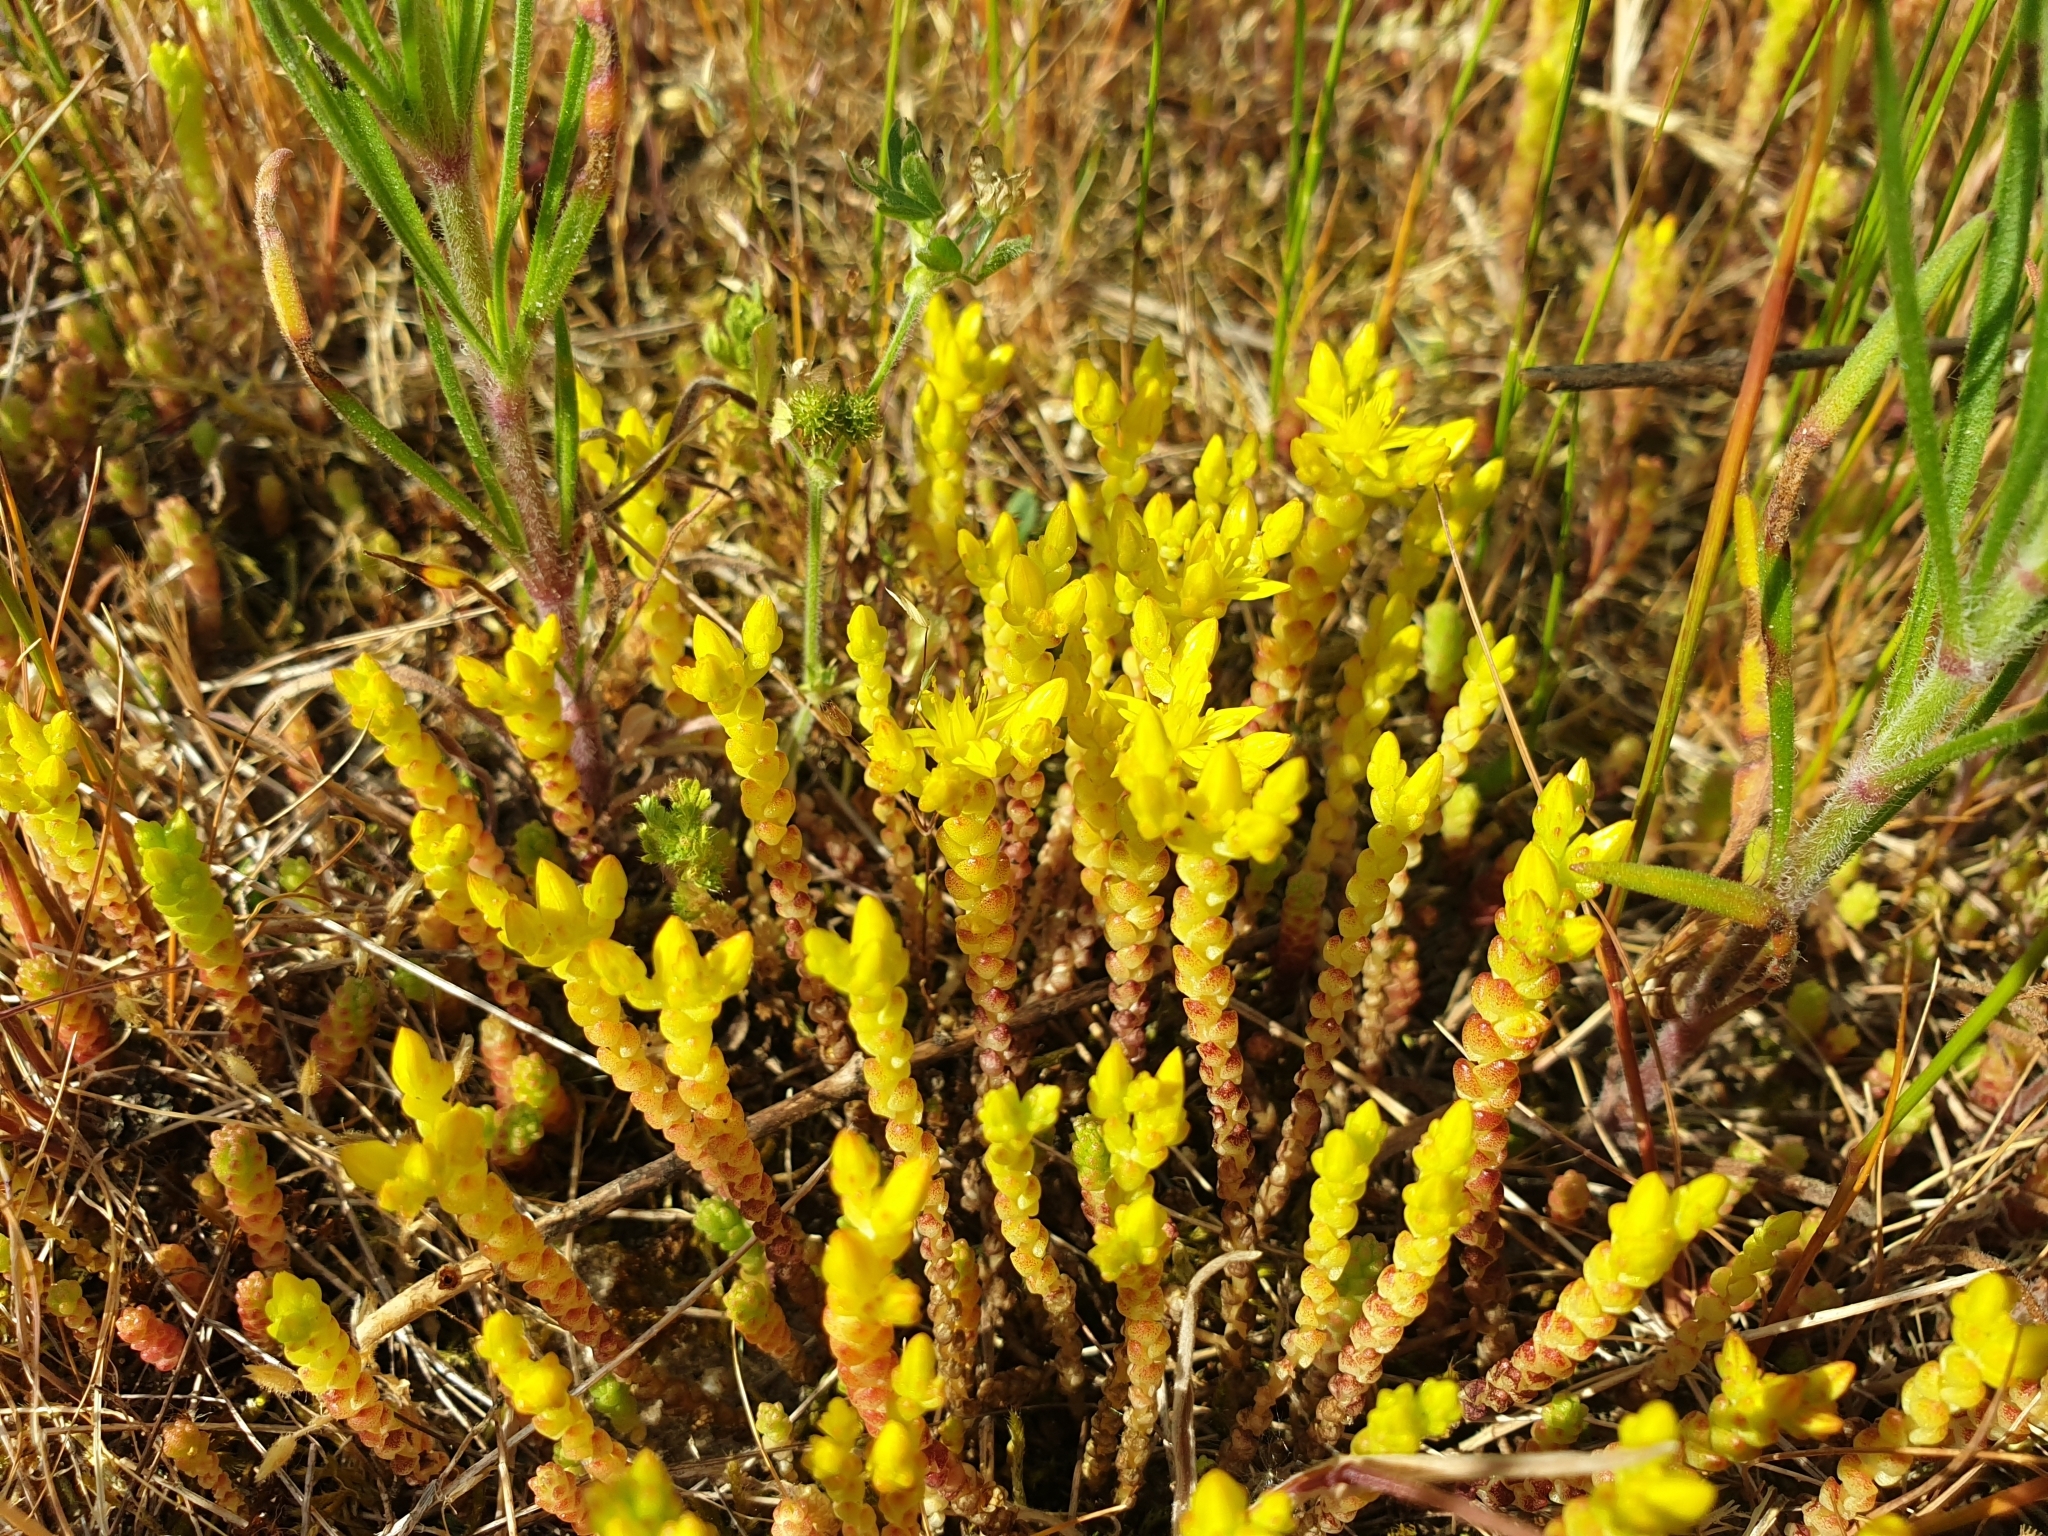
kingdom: Plantae
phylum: Tracheophyta
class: Magnoliopsida
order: Saxifragales
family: Crassulaceae
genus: Sedum
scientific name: Sedum acre
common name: Biting stonecrop
